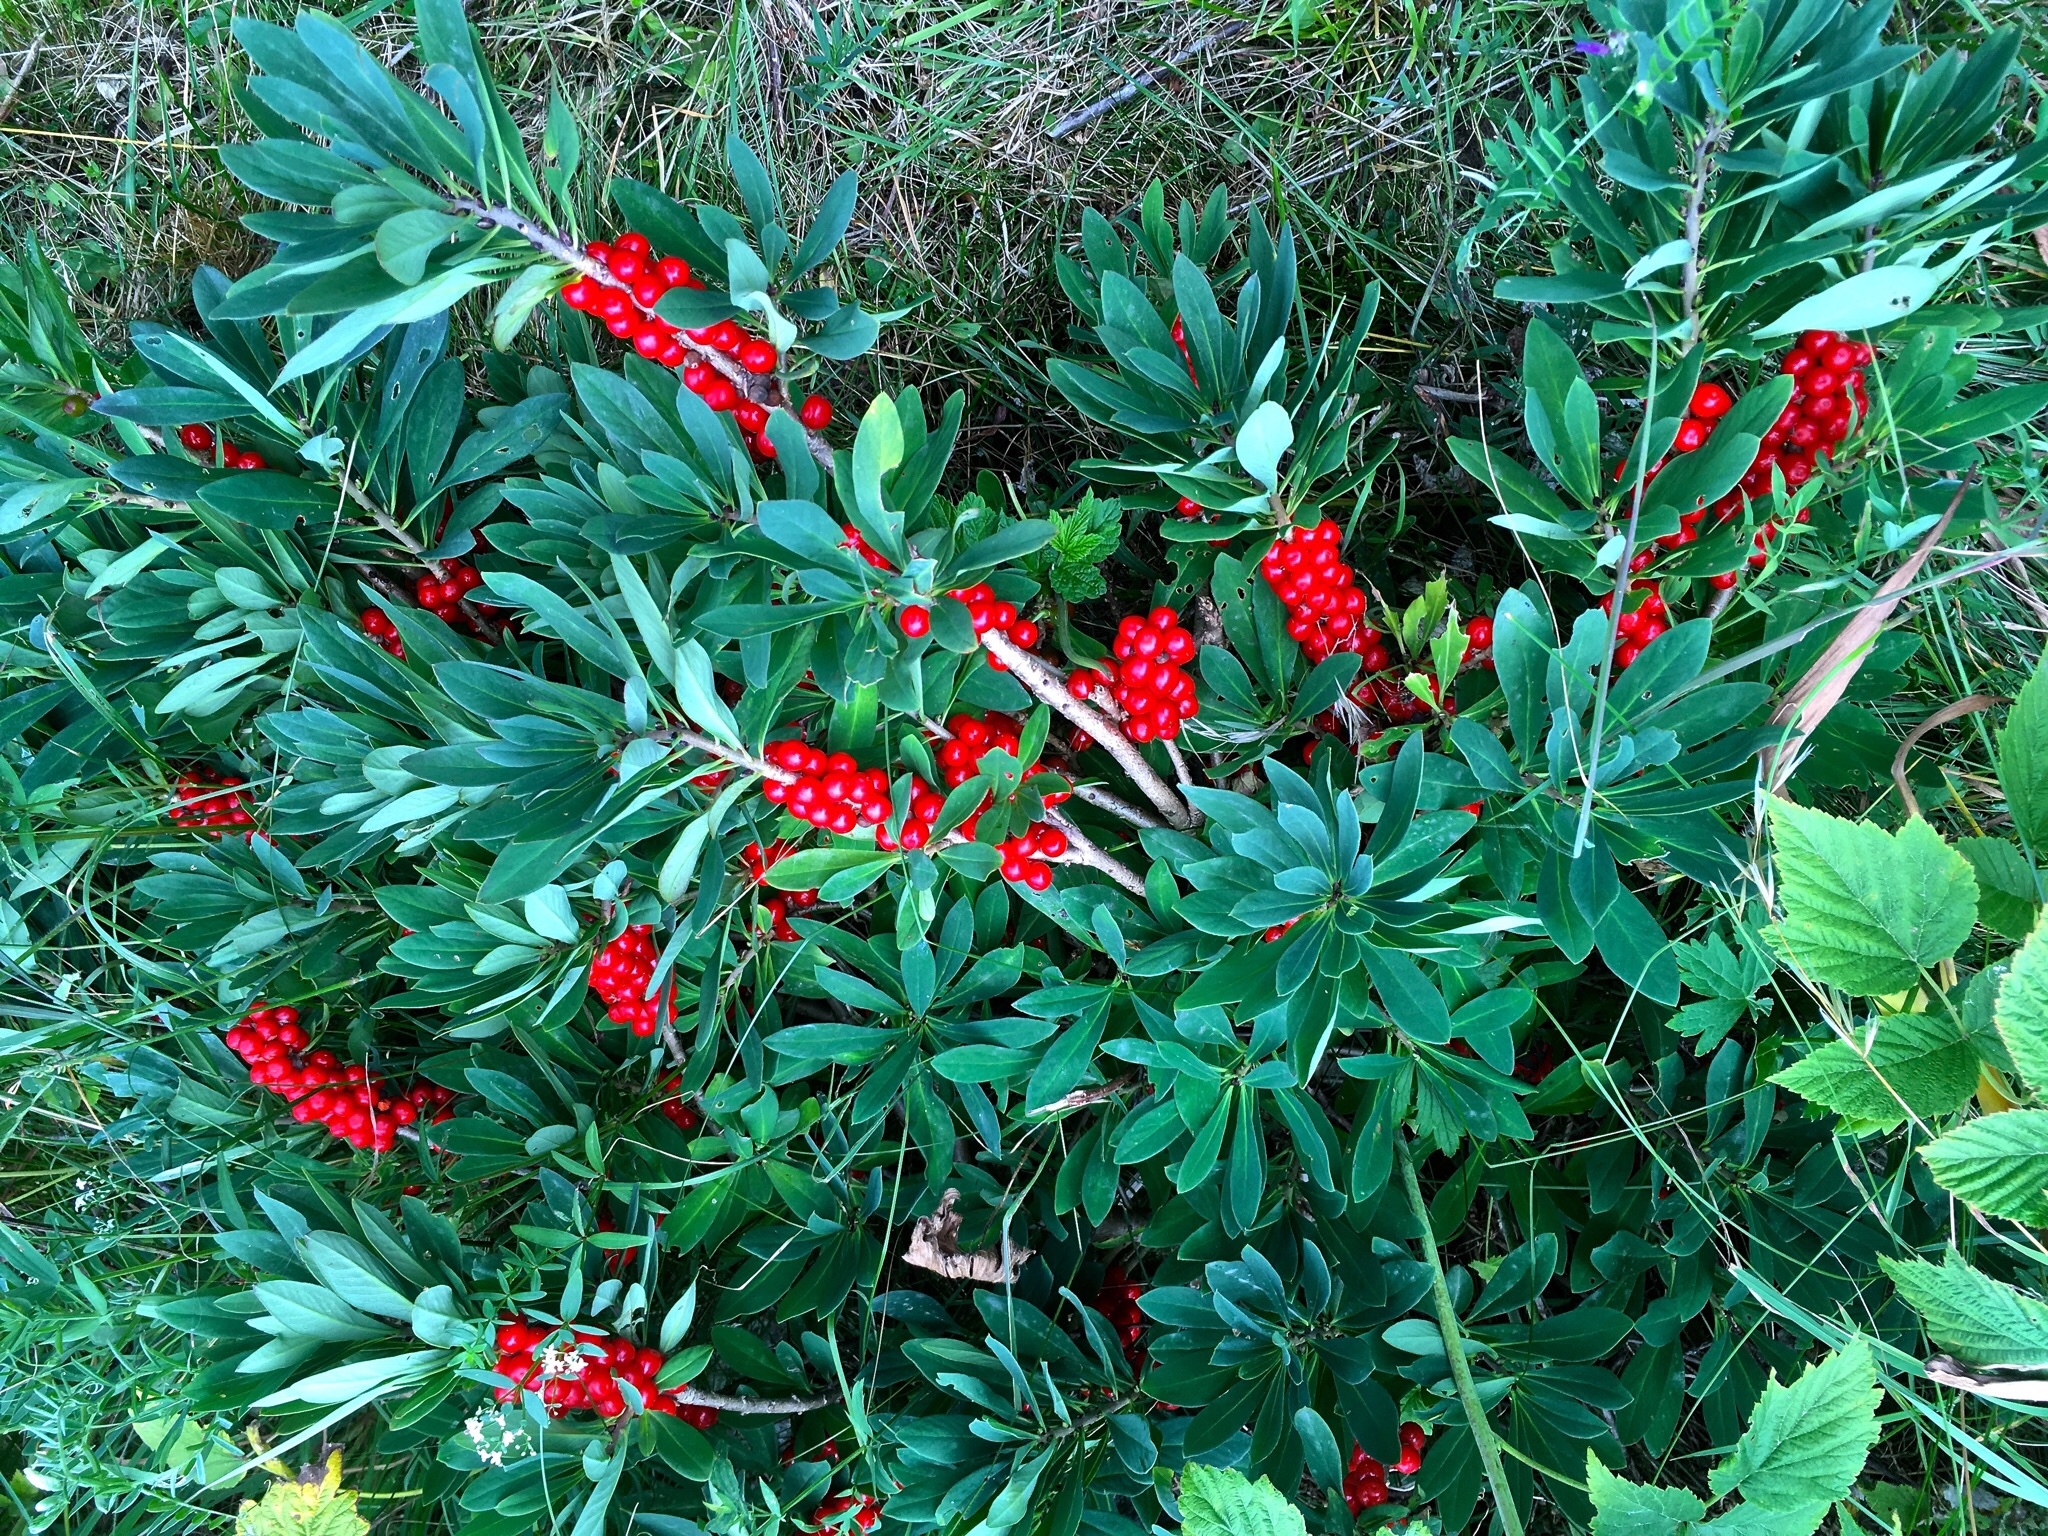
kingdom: Plantae
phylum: Tracheophyta
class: Magnoliopsida
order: Malvales
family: Thymelaeaceae
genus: Daphne
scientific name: Daphne mezereum
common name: Mezereon
